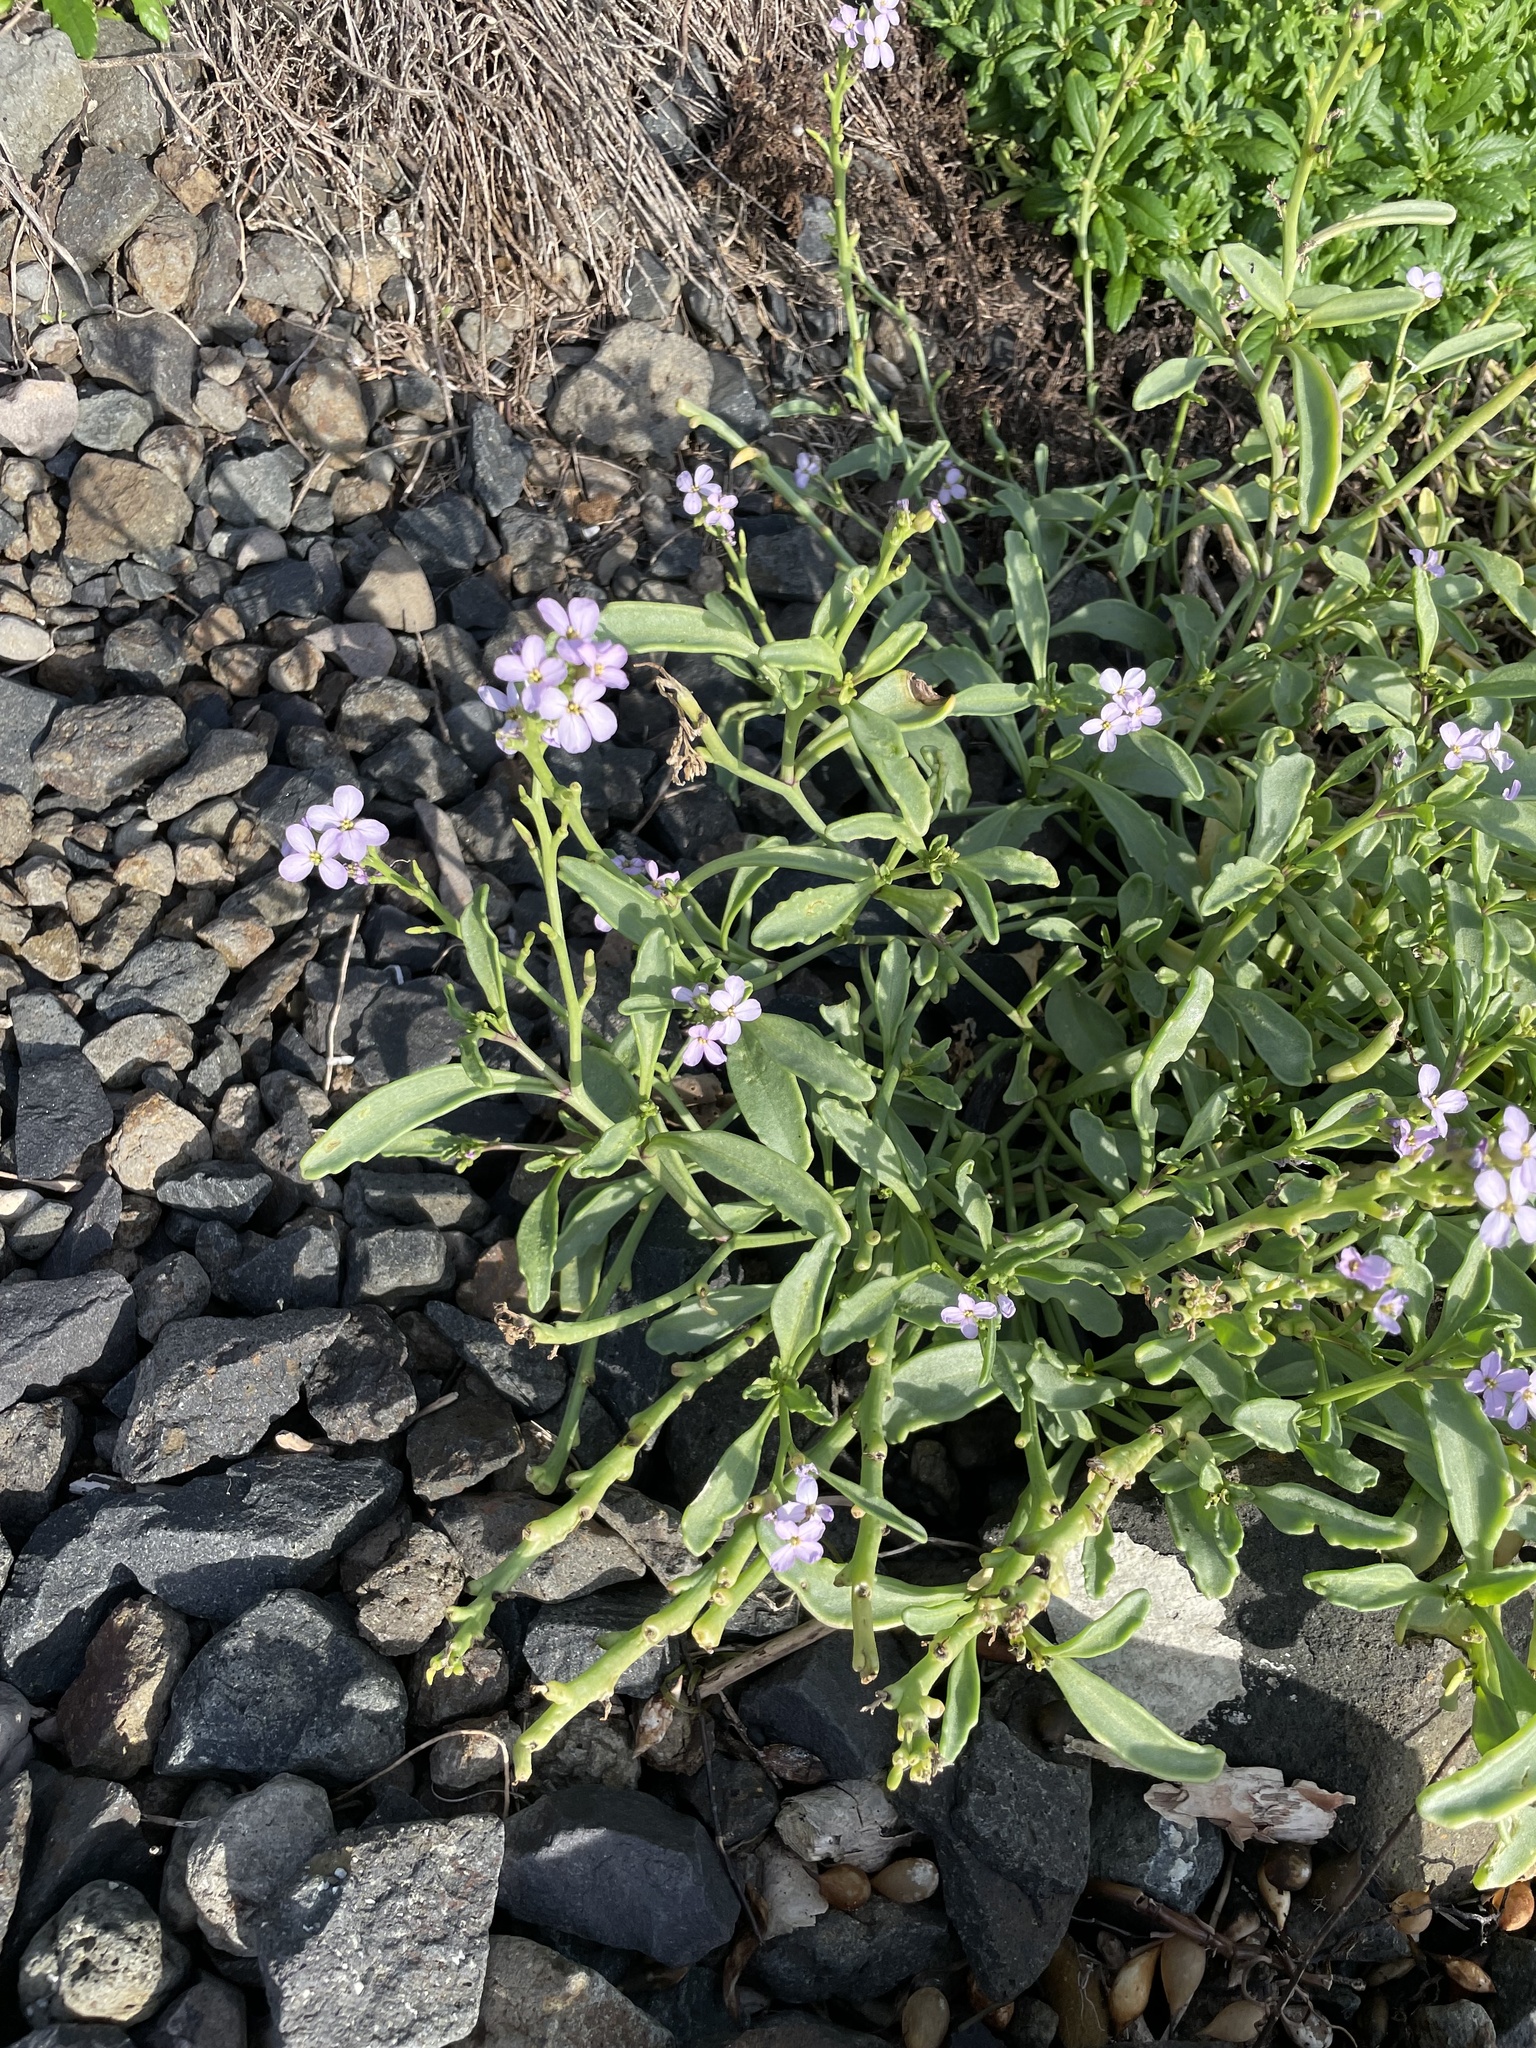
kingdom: Plantae
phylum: Tracheophyta
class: Magnoliopsida
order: Brassicales
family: Brassicaceae
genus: Cakile
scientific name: Cakile maritima
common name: Sea rocket
